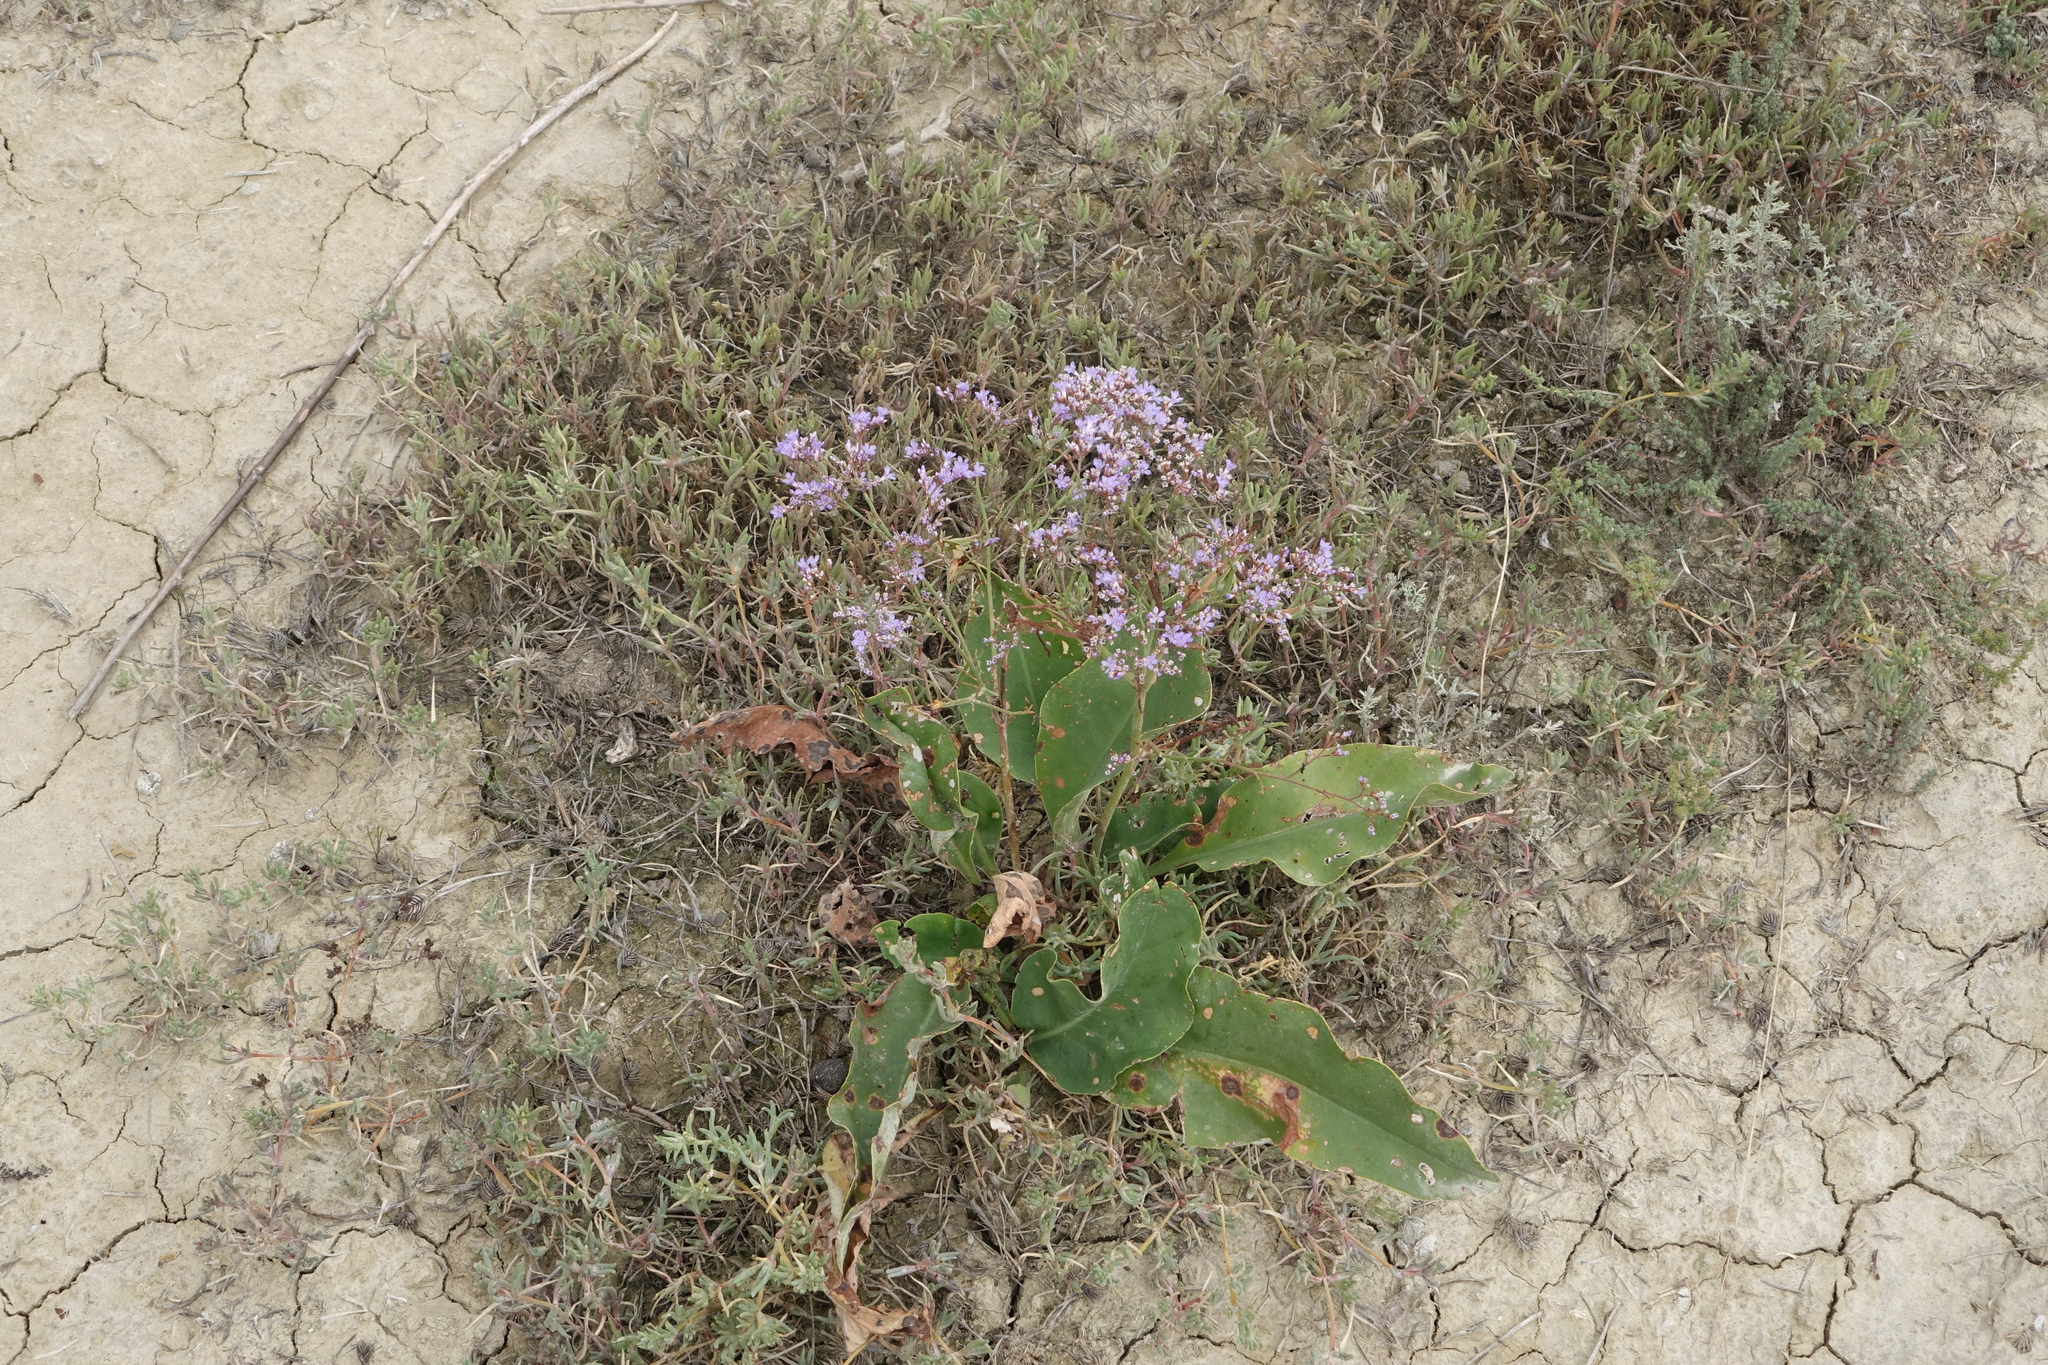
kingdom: Plantae
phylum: Tracheophyta
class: Magnoliopsida
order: Caryophyllales
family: Plumbaginaceae
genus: Limonium
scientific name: Limonium scoparium
